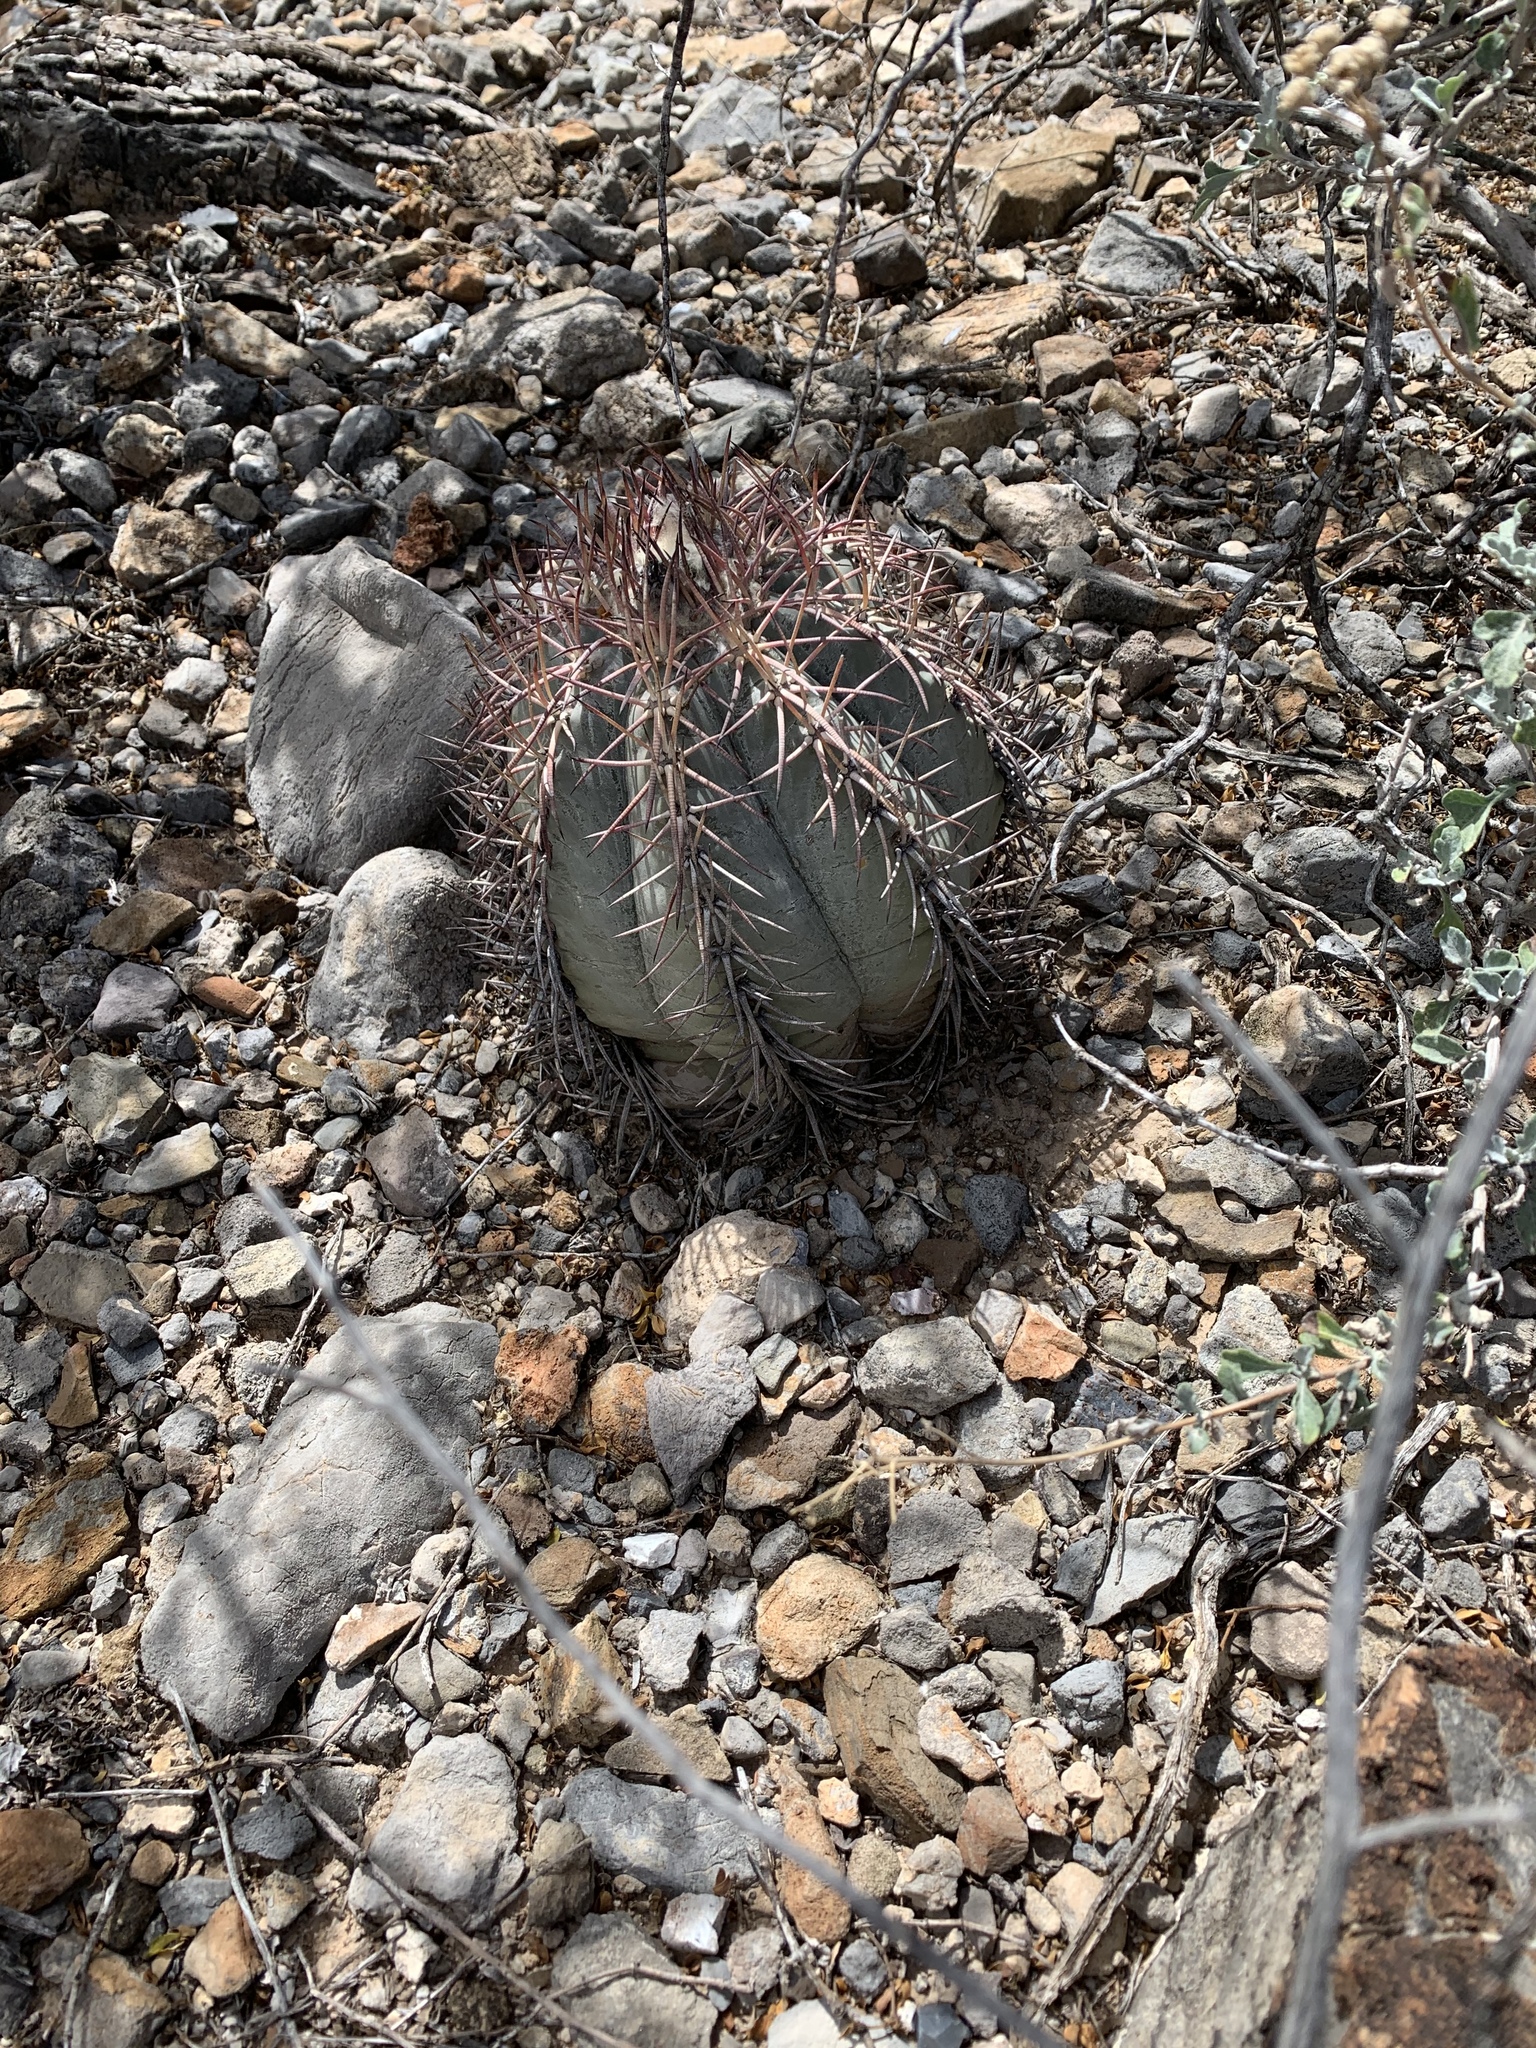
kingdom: Plantae
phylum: Tracheophyta
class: Magnoliopsida
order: Caryophyllales
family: Cactaceae
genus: Echinocactus
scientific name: Echinocactus horizonthalonius
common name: Devilshead
